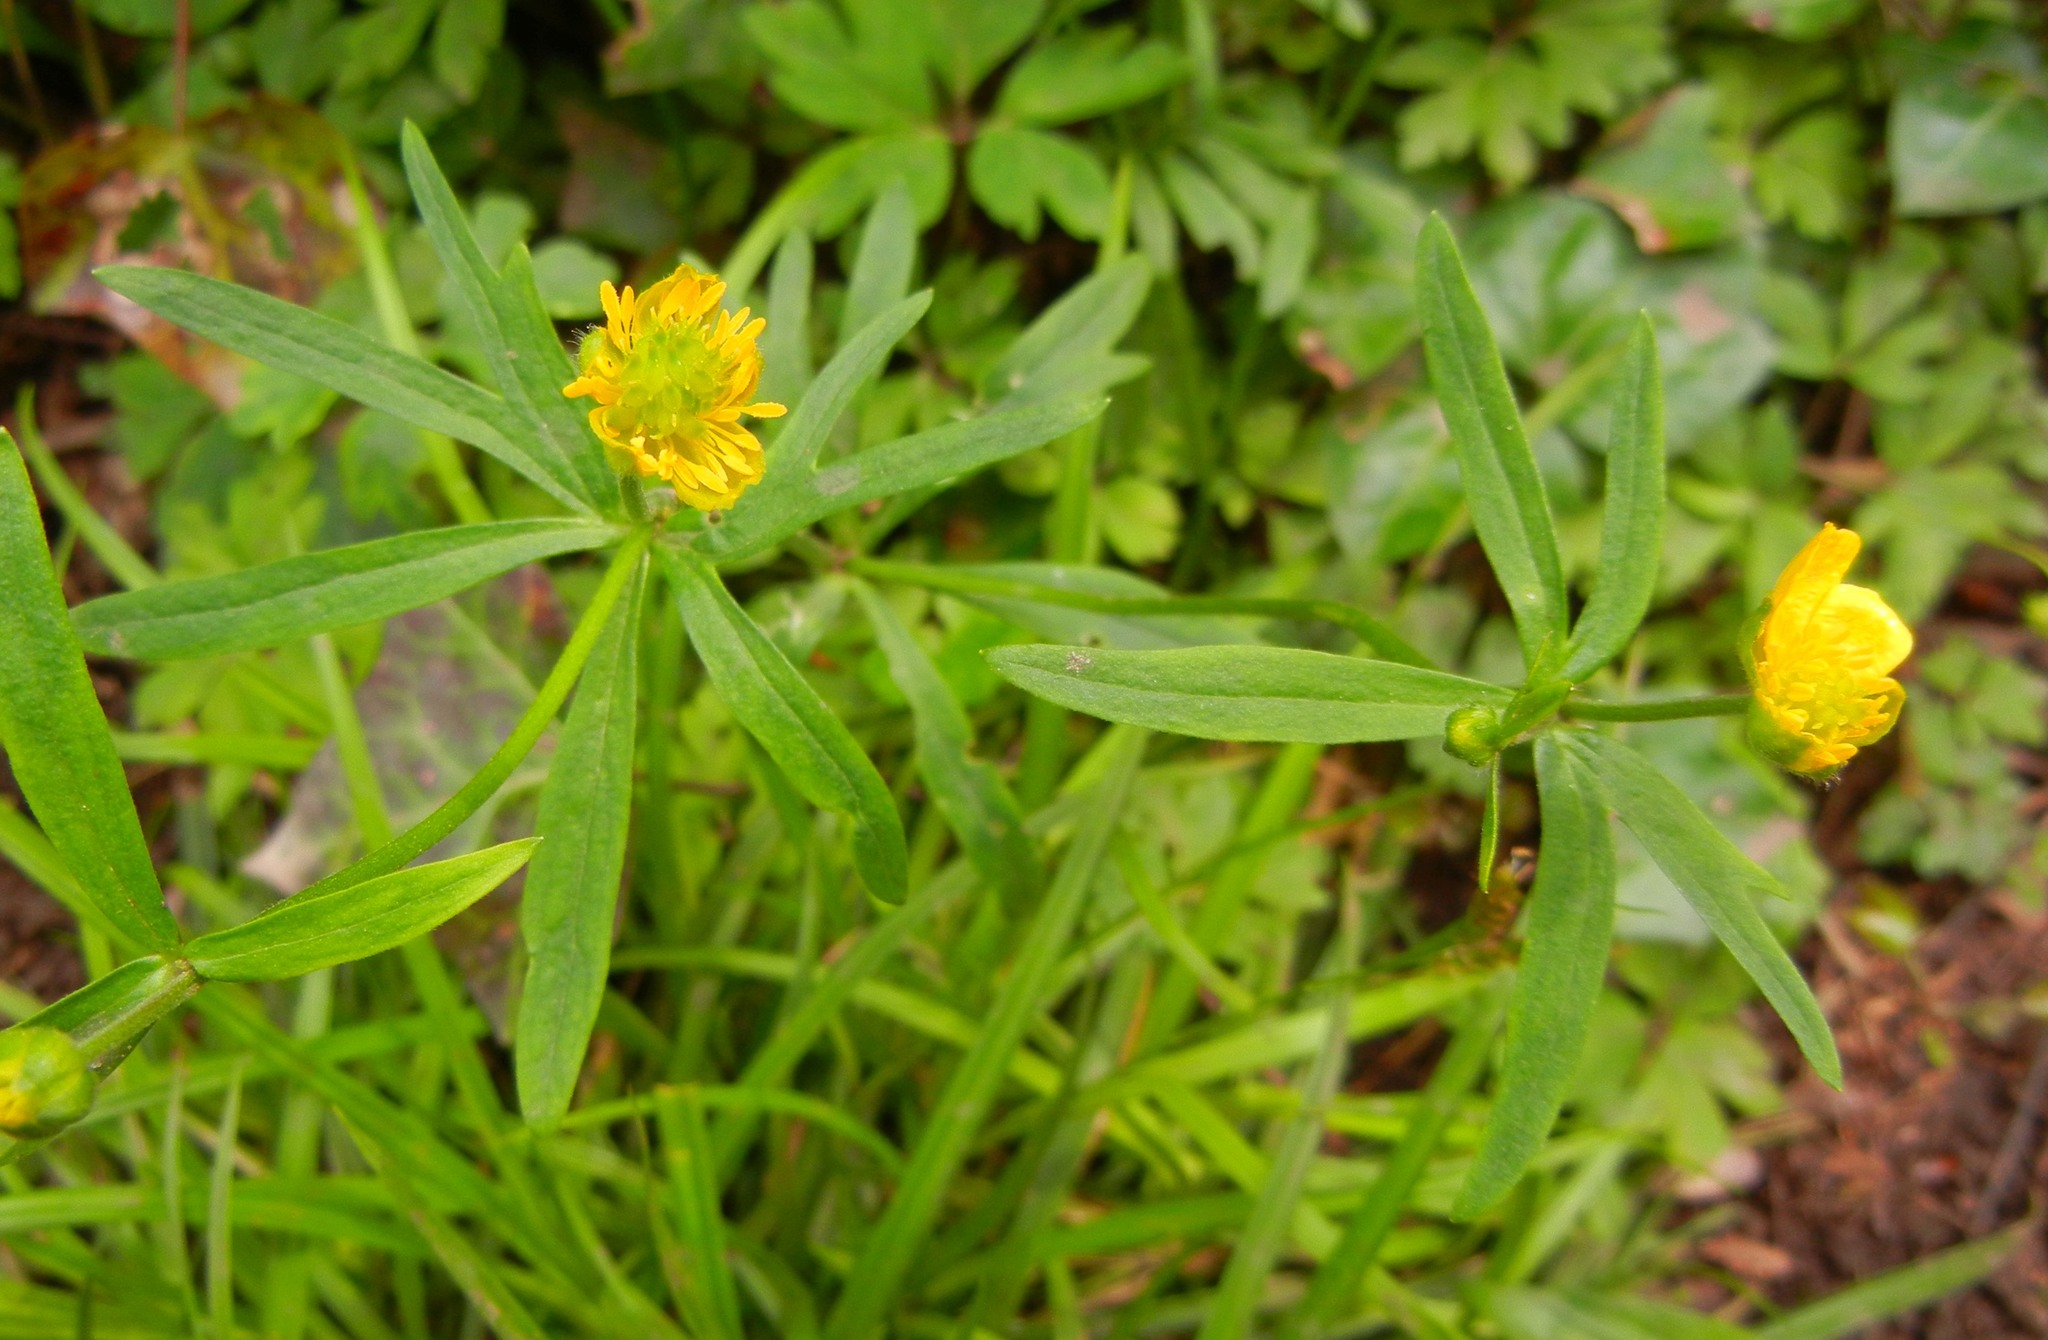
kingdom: Plantae
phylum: Tracheophyta
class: Magnoliopsida
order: Ranunculales
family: Ranunculaceae
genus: Ranunculus
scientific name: Ranunculus auricomus
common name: Goldilocks buttercup
